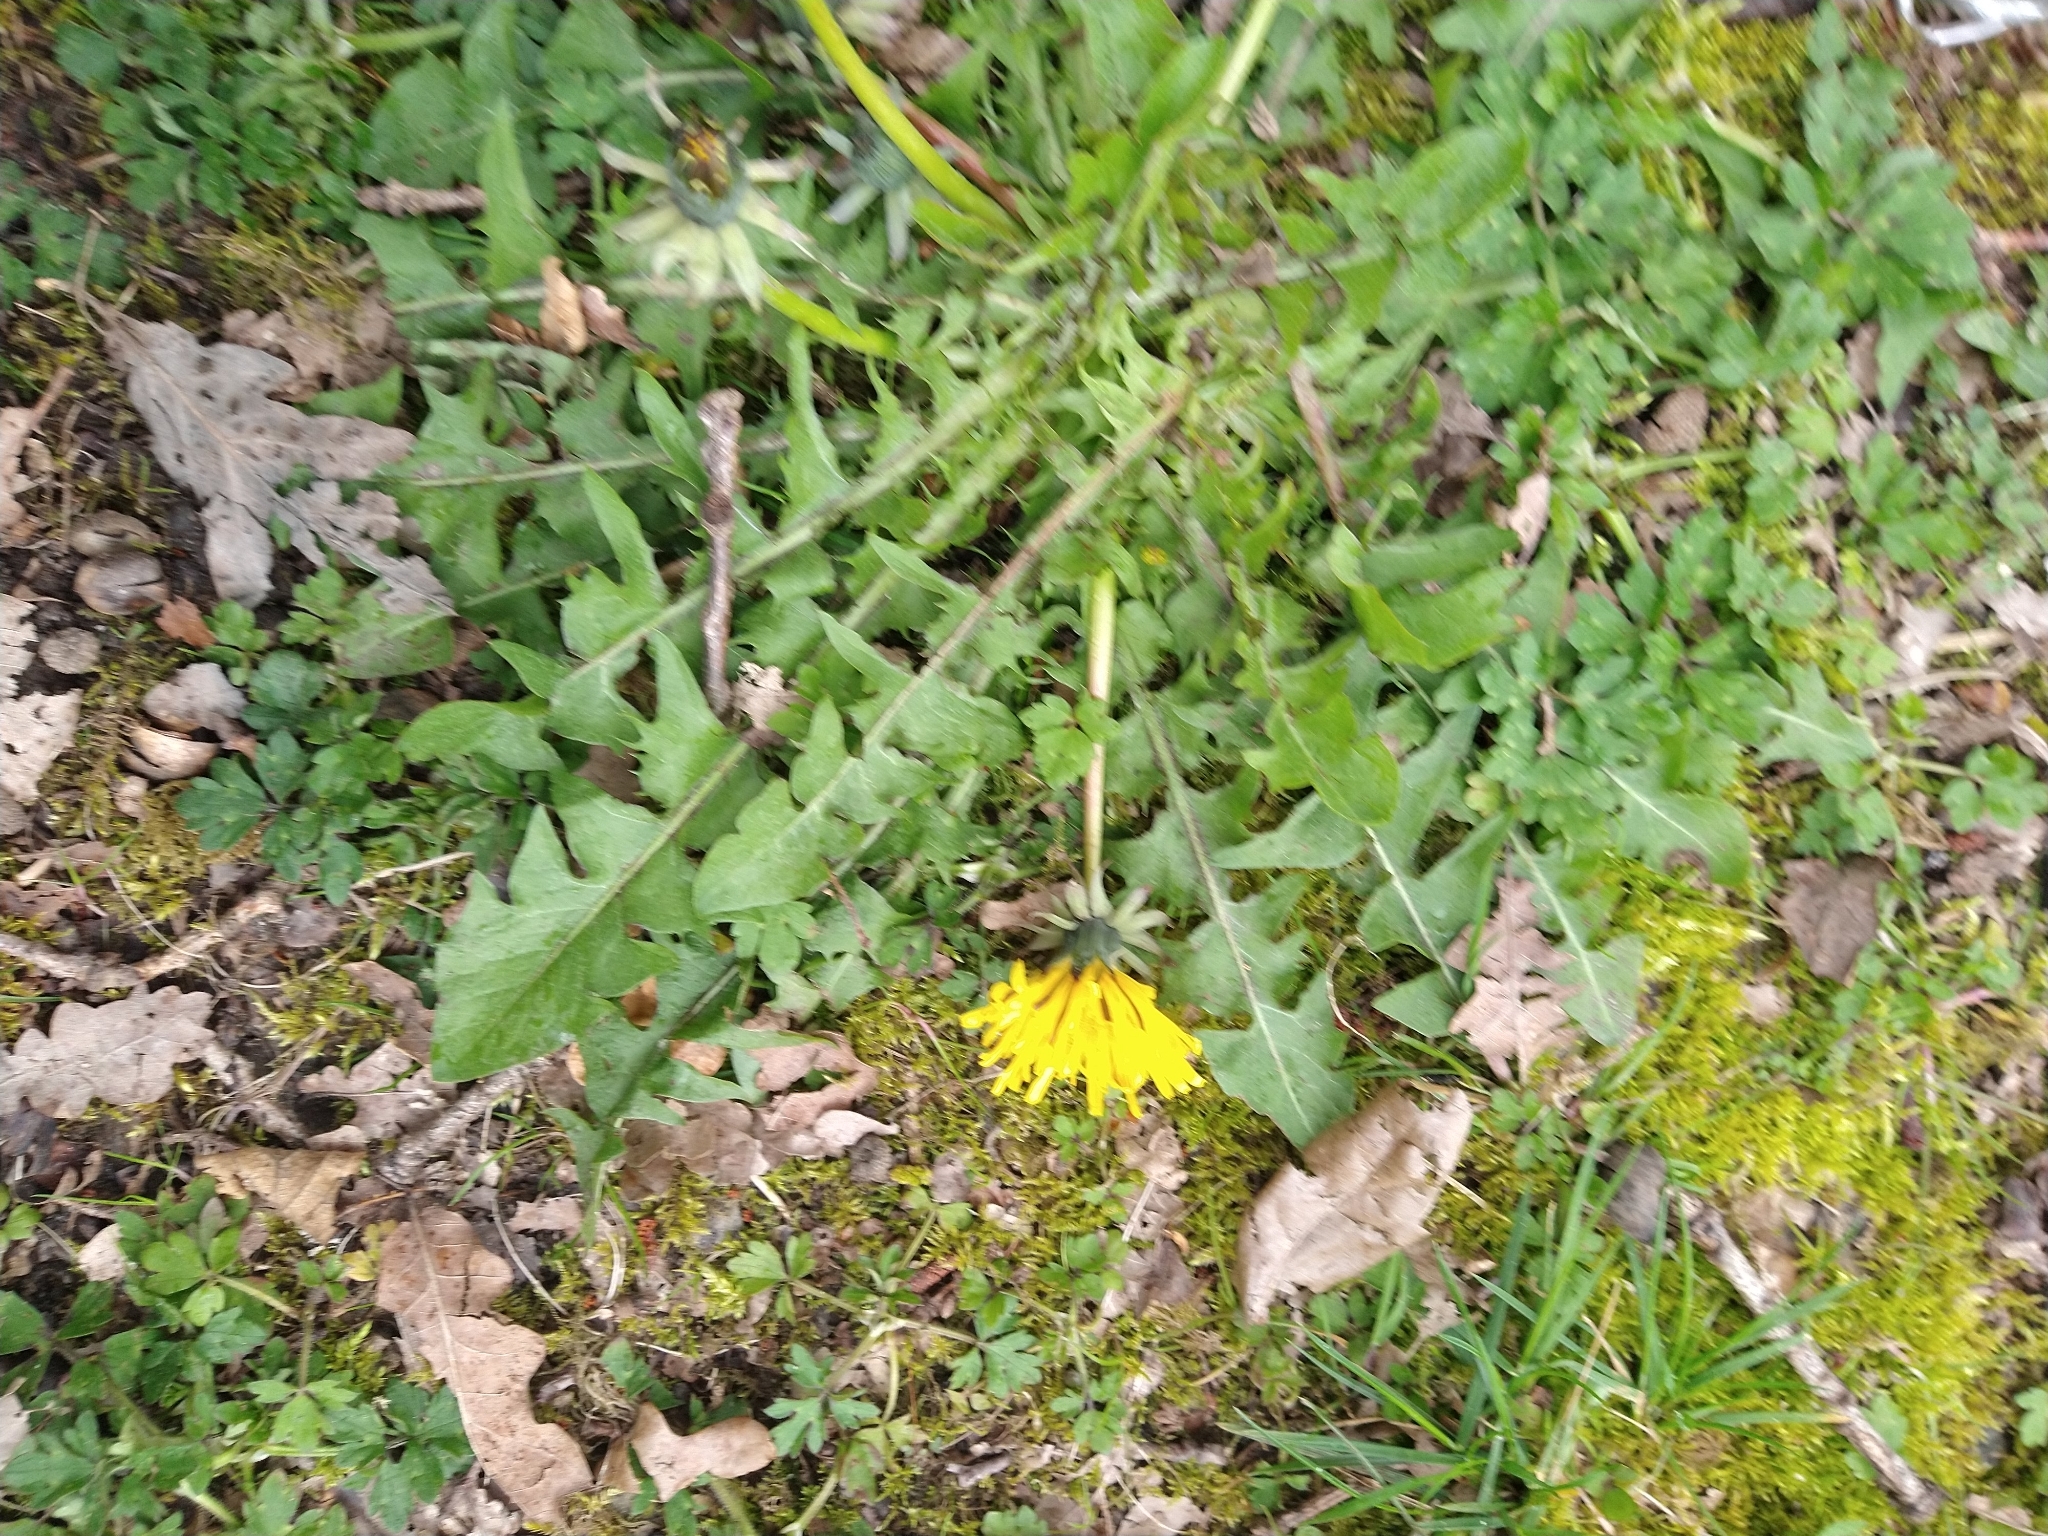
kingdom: Plantae
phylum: Tracheophyta
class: Magnoliopsida
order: Asterales
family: Asteraceae
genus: Taraxacum
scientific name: Taraxacum officinale
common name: Common dandelion
